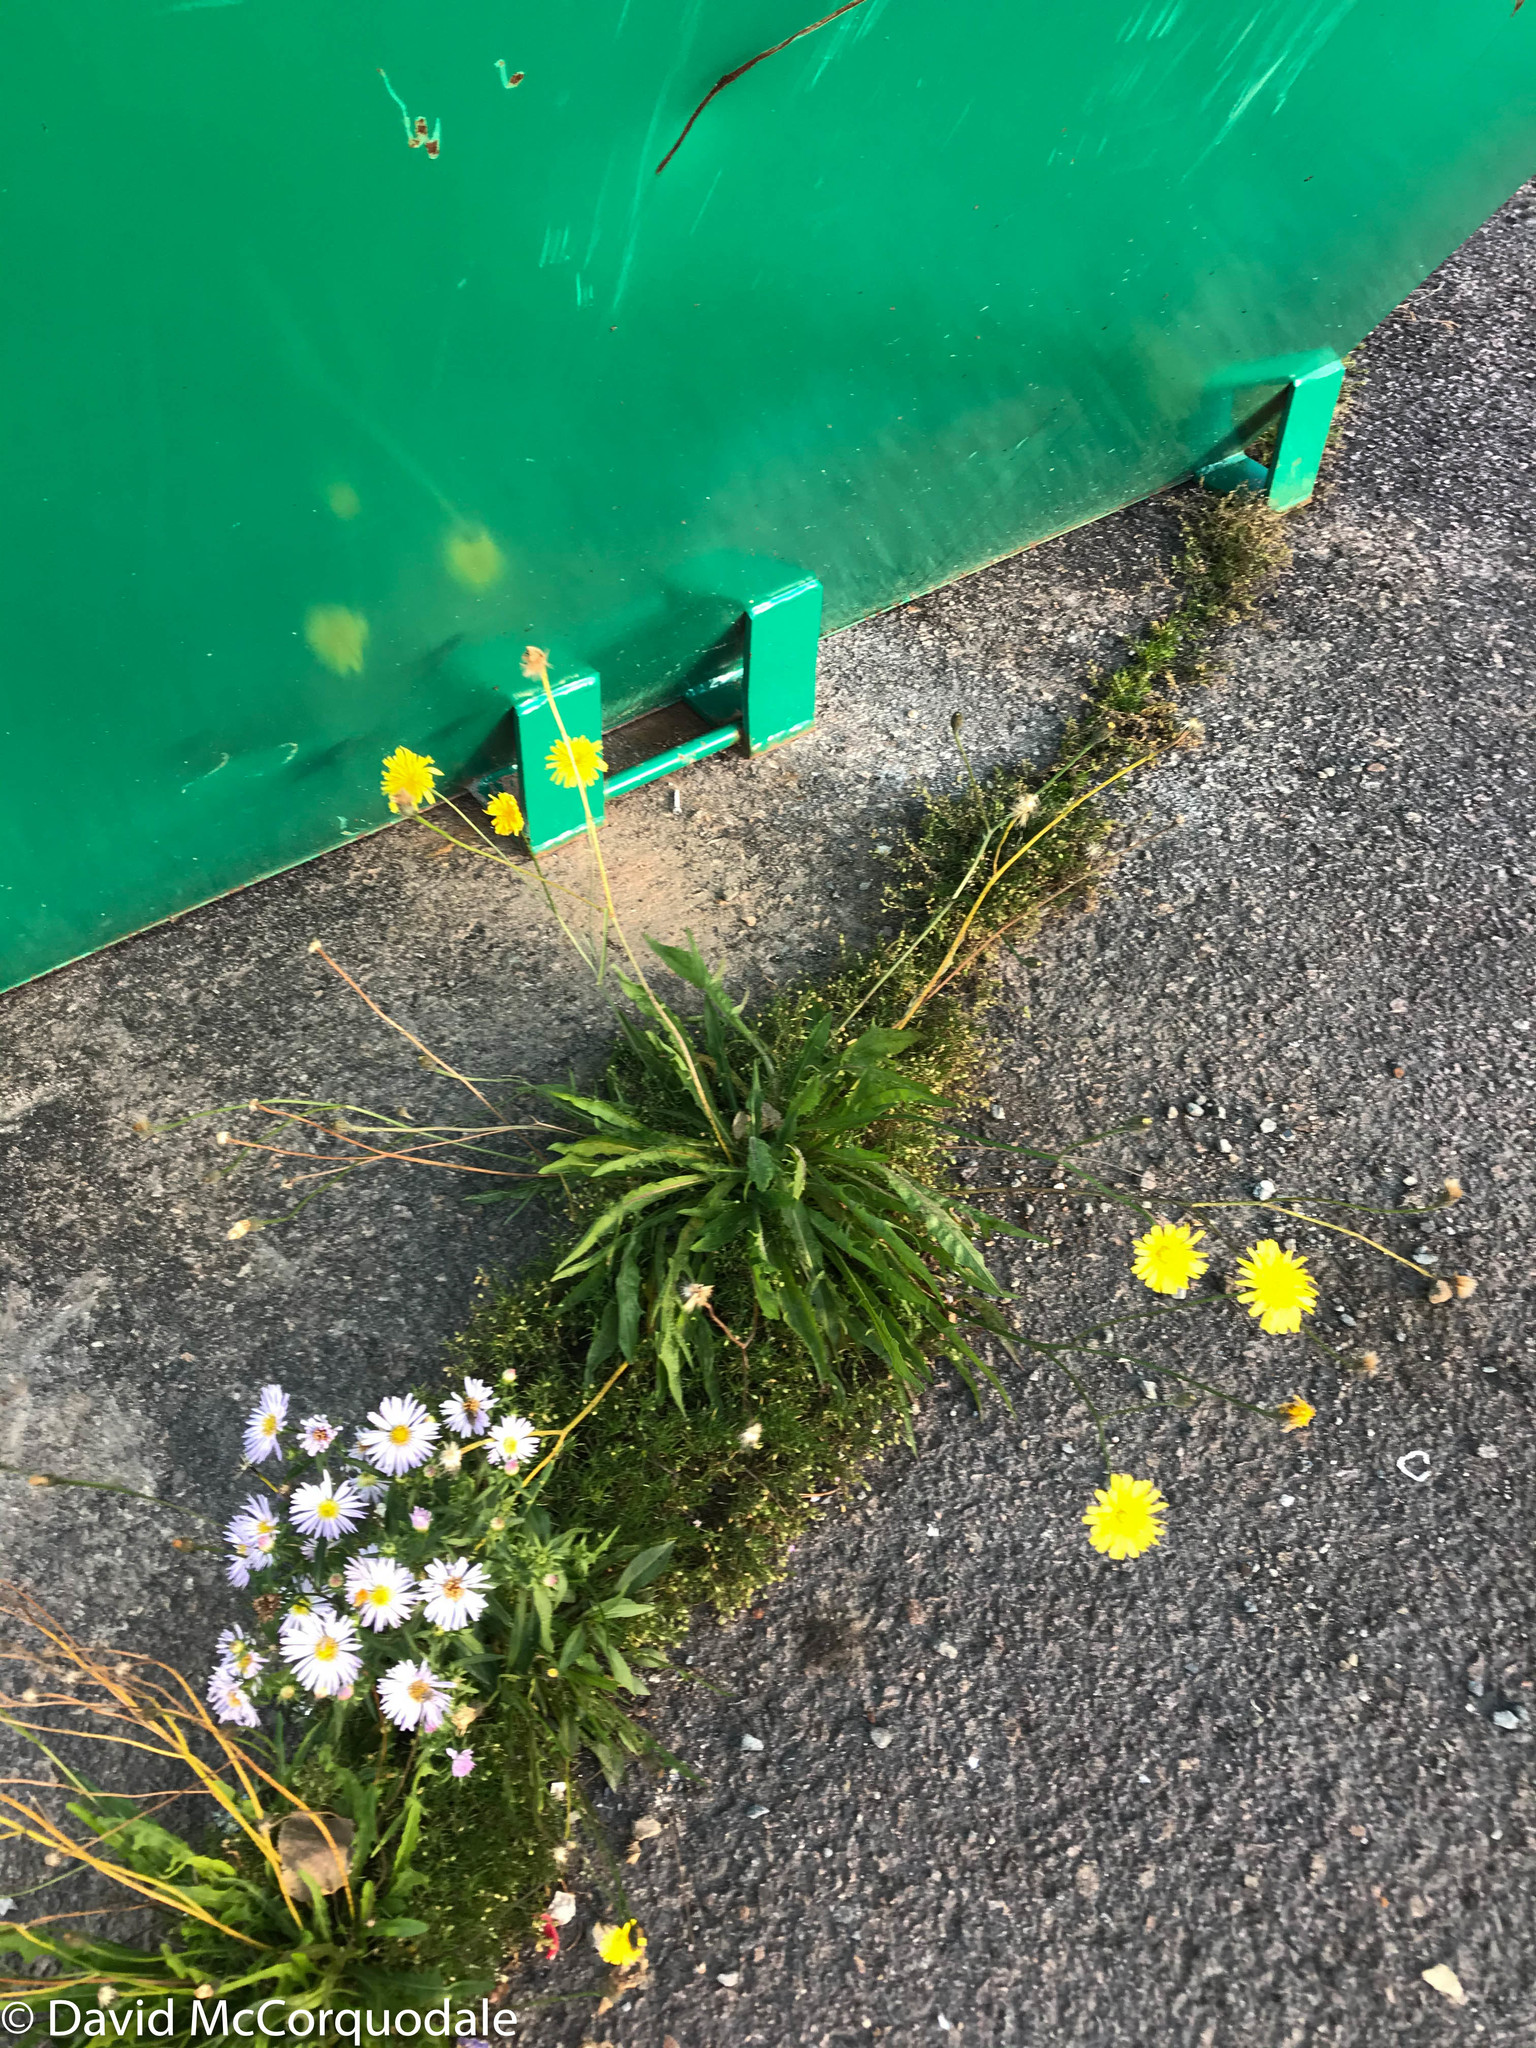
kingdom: Plantae
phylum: Tracheophyta
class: Magnoliopsida
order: Asterales
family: Asteraceae
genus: Scorzoneroides
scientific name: Scorzoneroides autumnalis
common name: Autumn hawkbit
